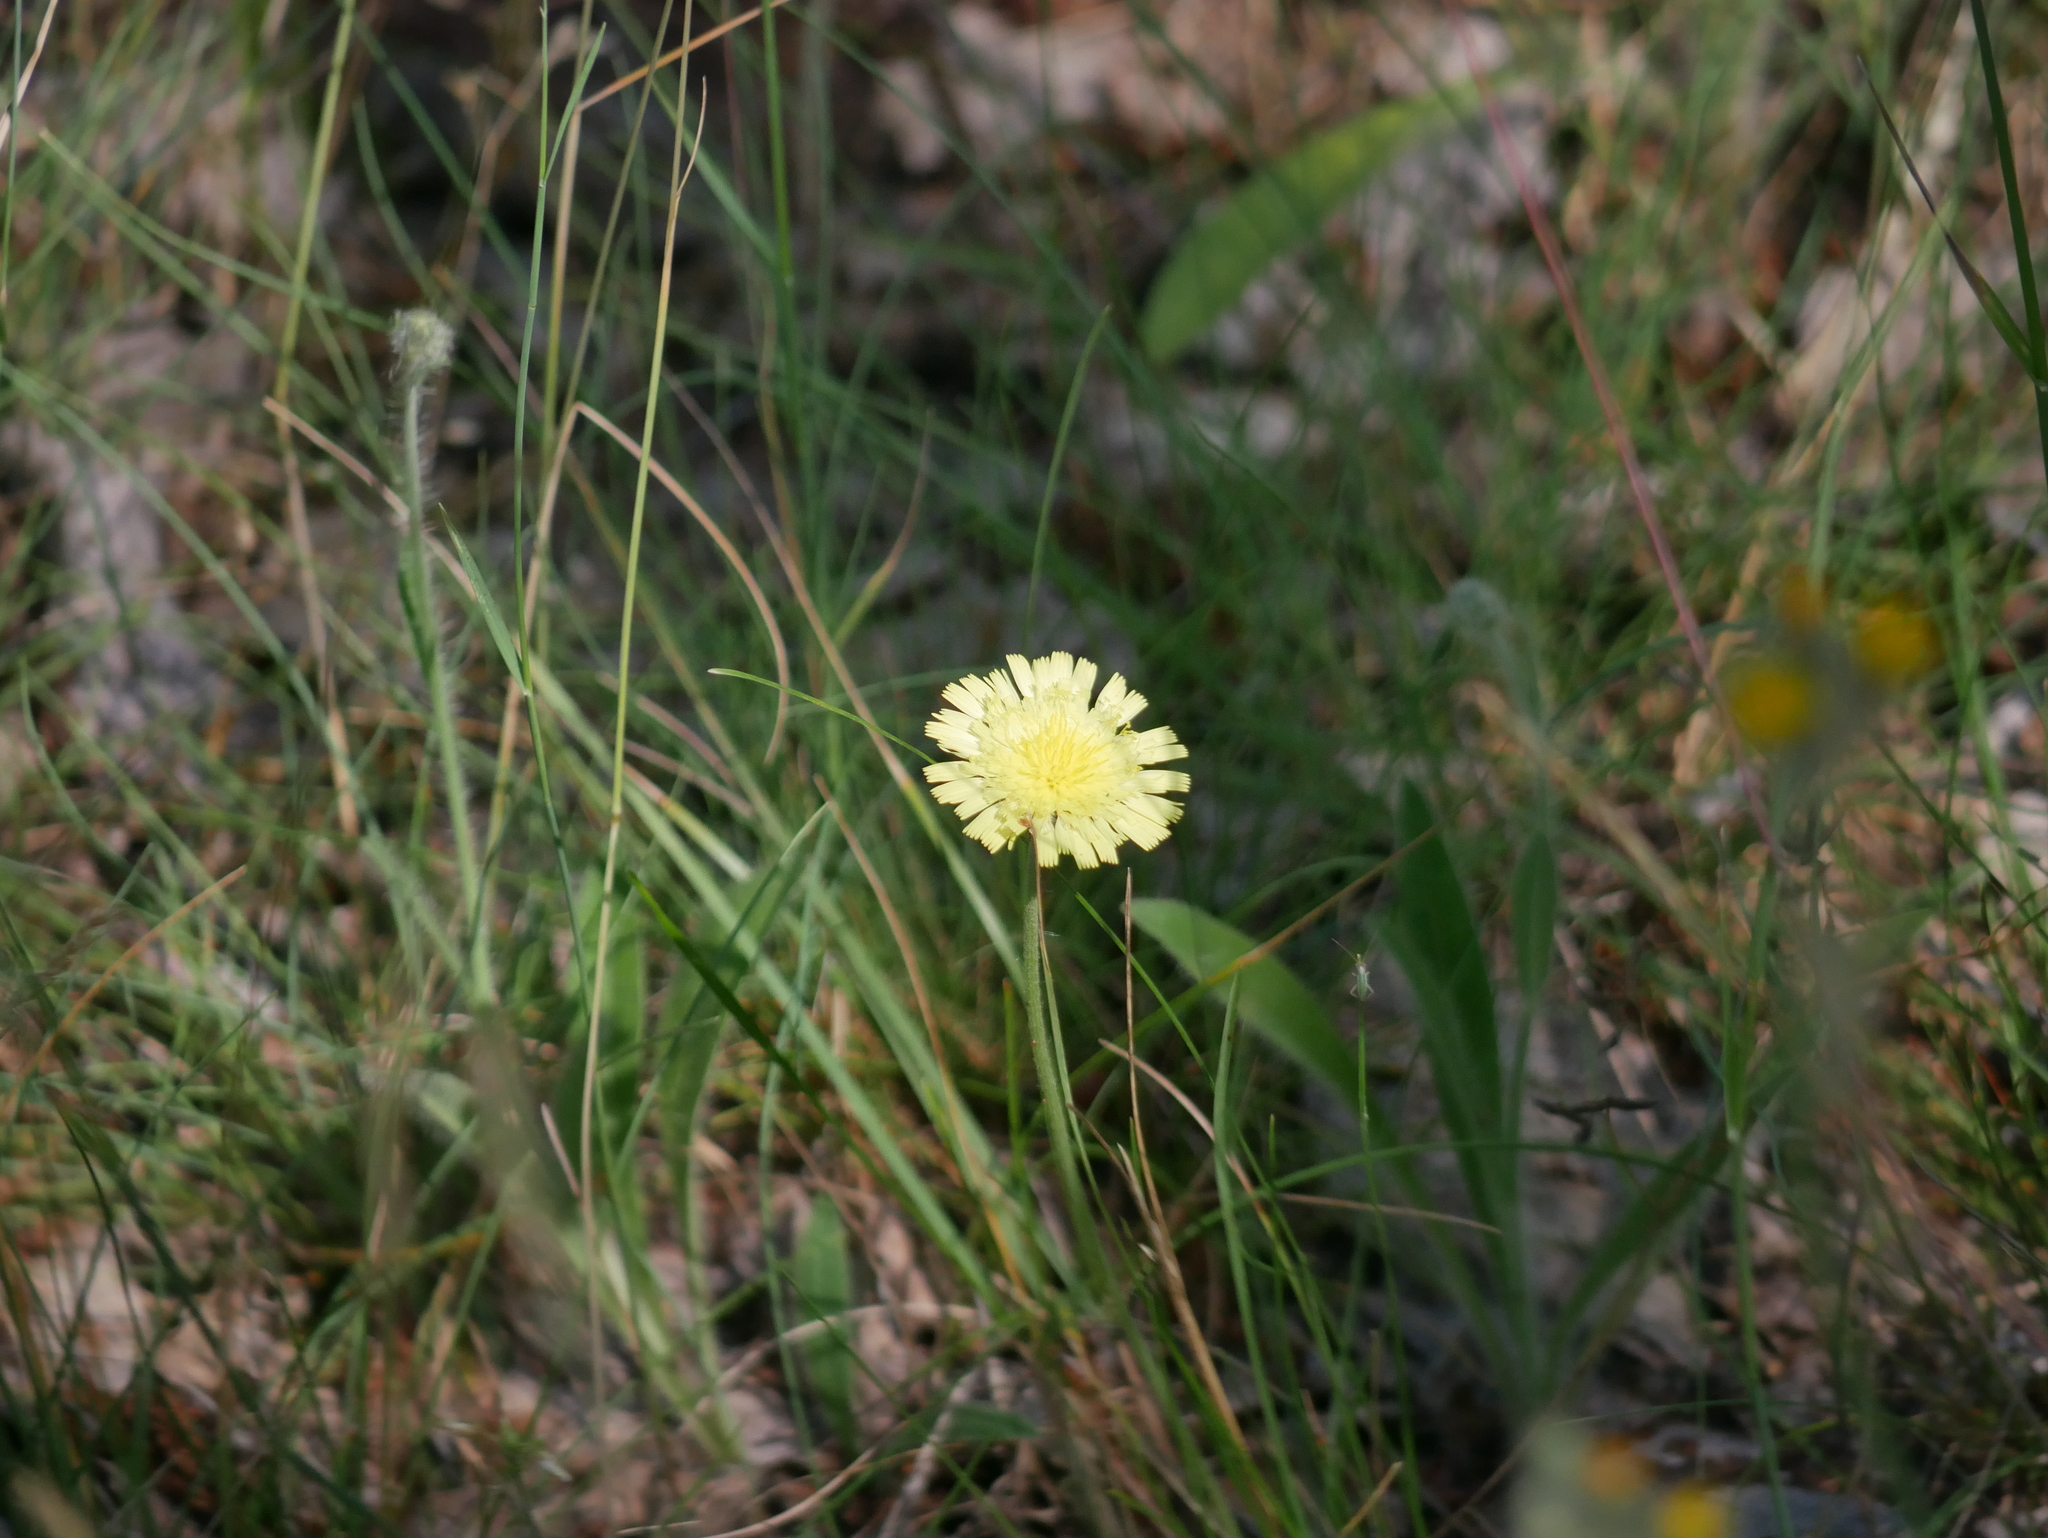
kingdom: Plantae
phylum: Tracheophyta
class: Magnoliopsida
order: Asterales
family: Asteraceae
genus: Pilosella
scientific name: Pilosella officinarum
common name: Mouse-ear hawkweed
